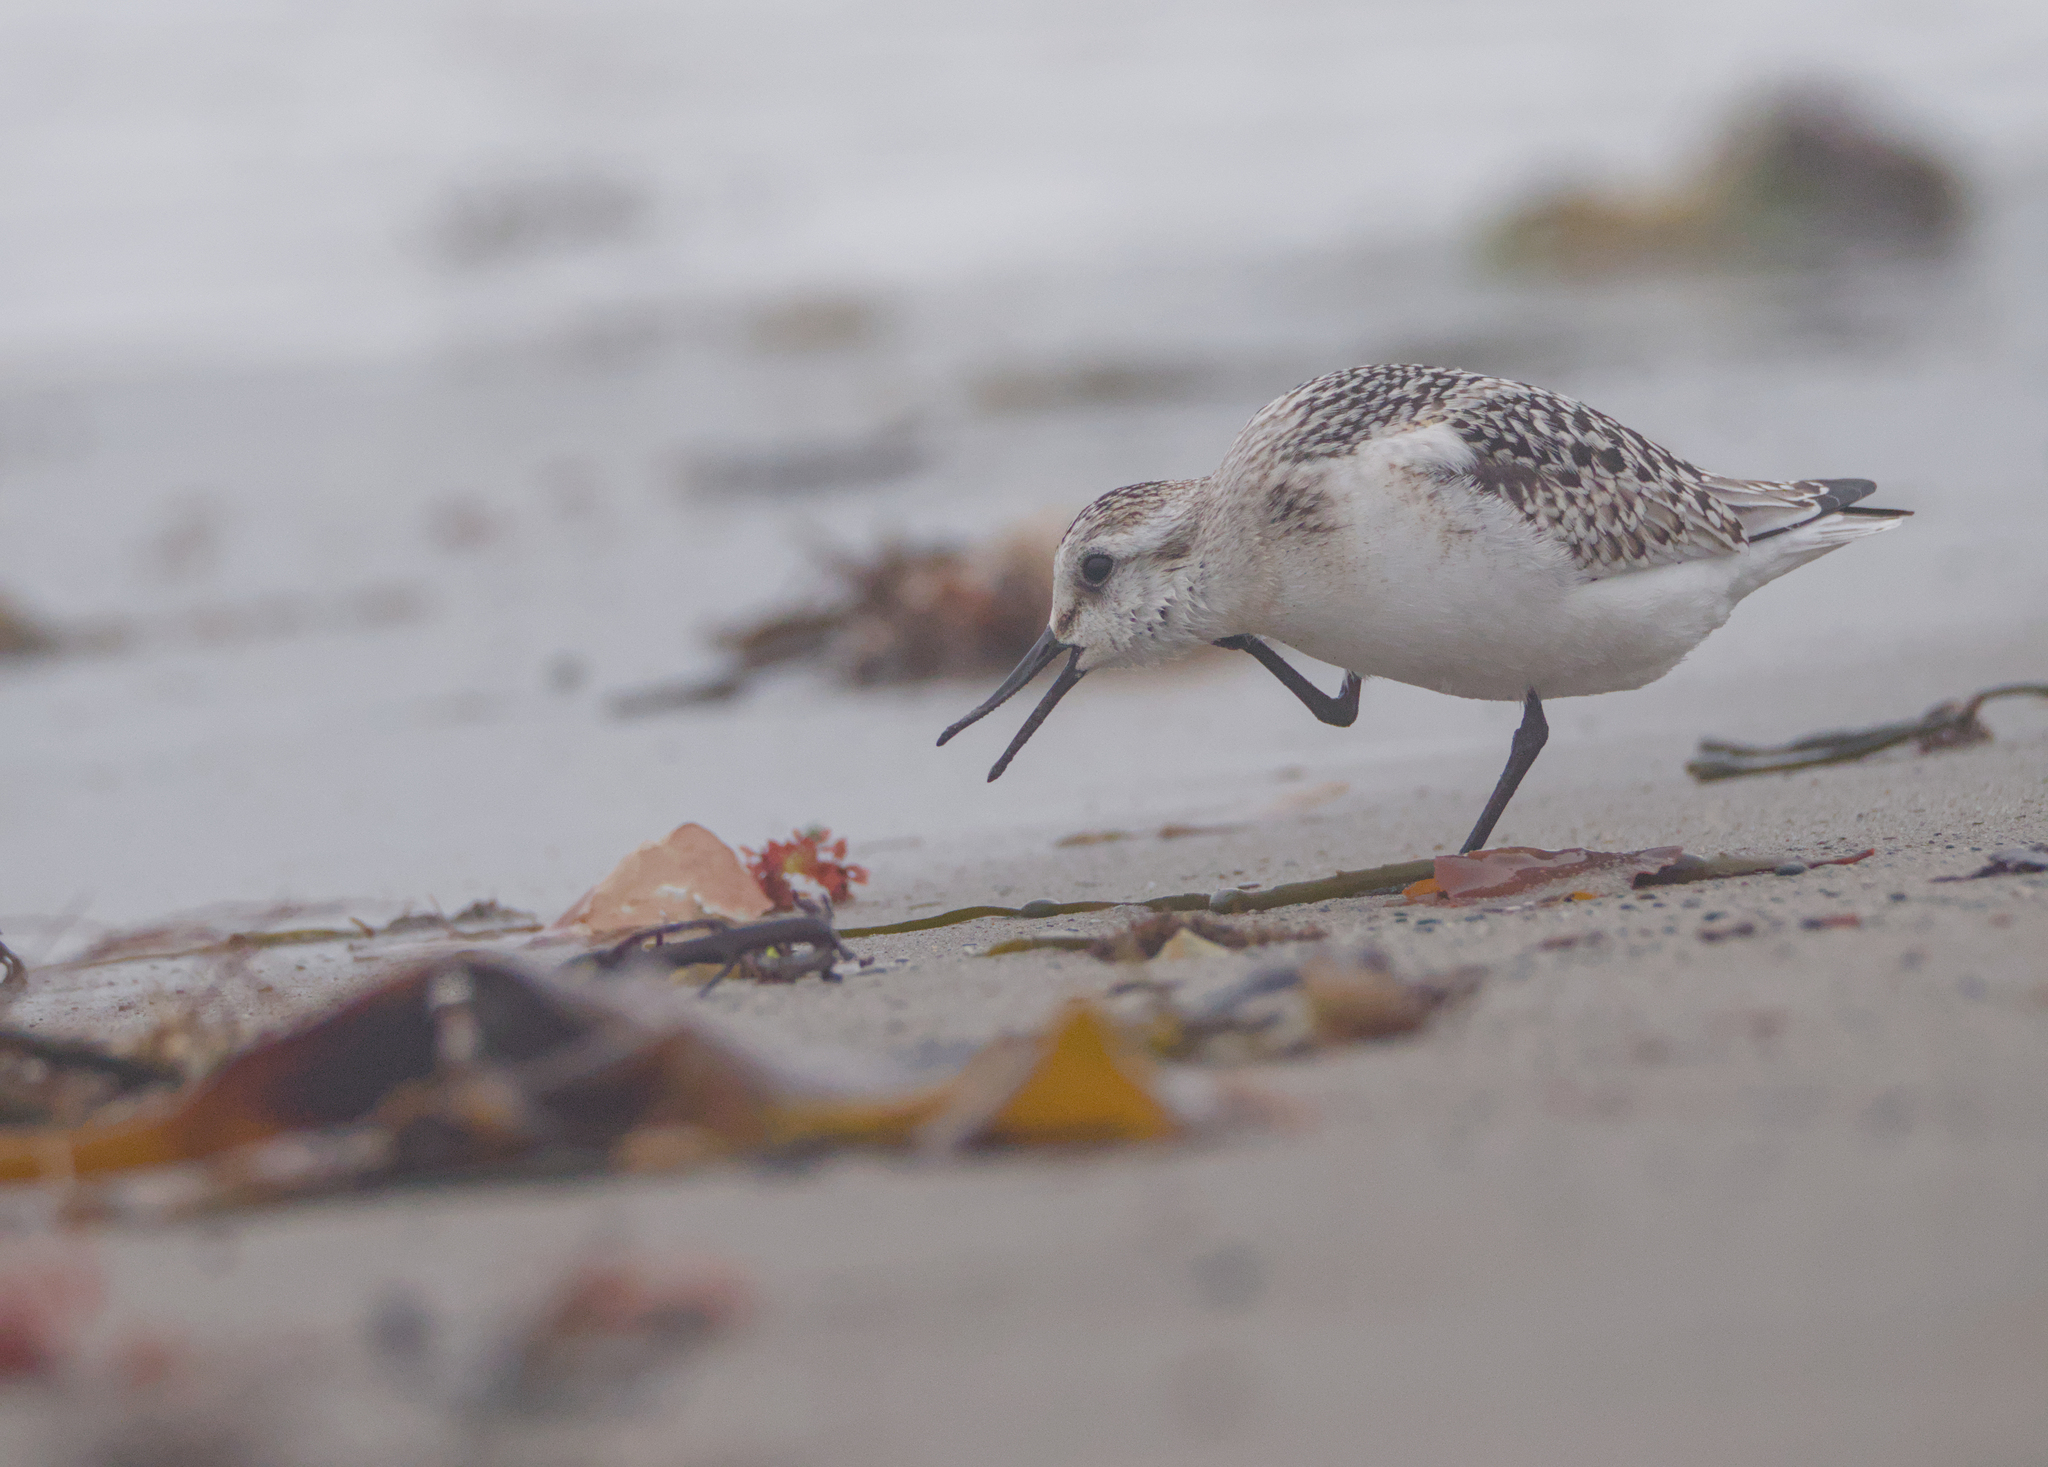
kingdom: Animalia
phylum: Chordata
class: Aves
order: Charadriiformes
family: Scolopacidae
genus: Calidris
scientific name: Calidris alba
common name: Sanderling
